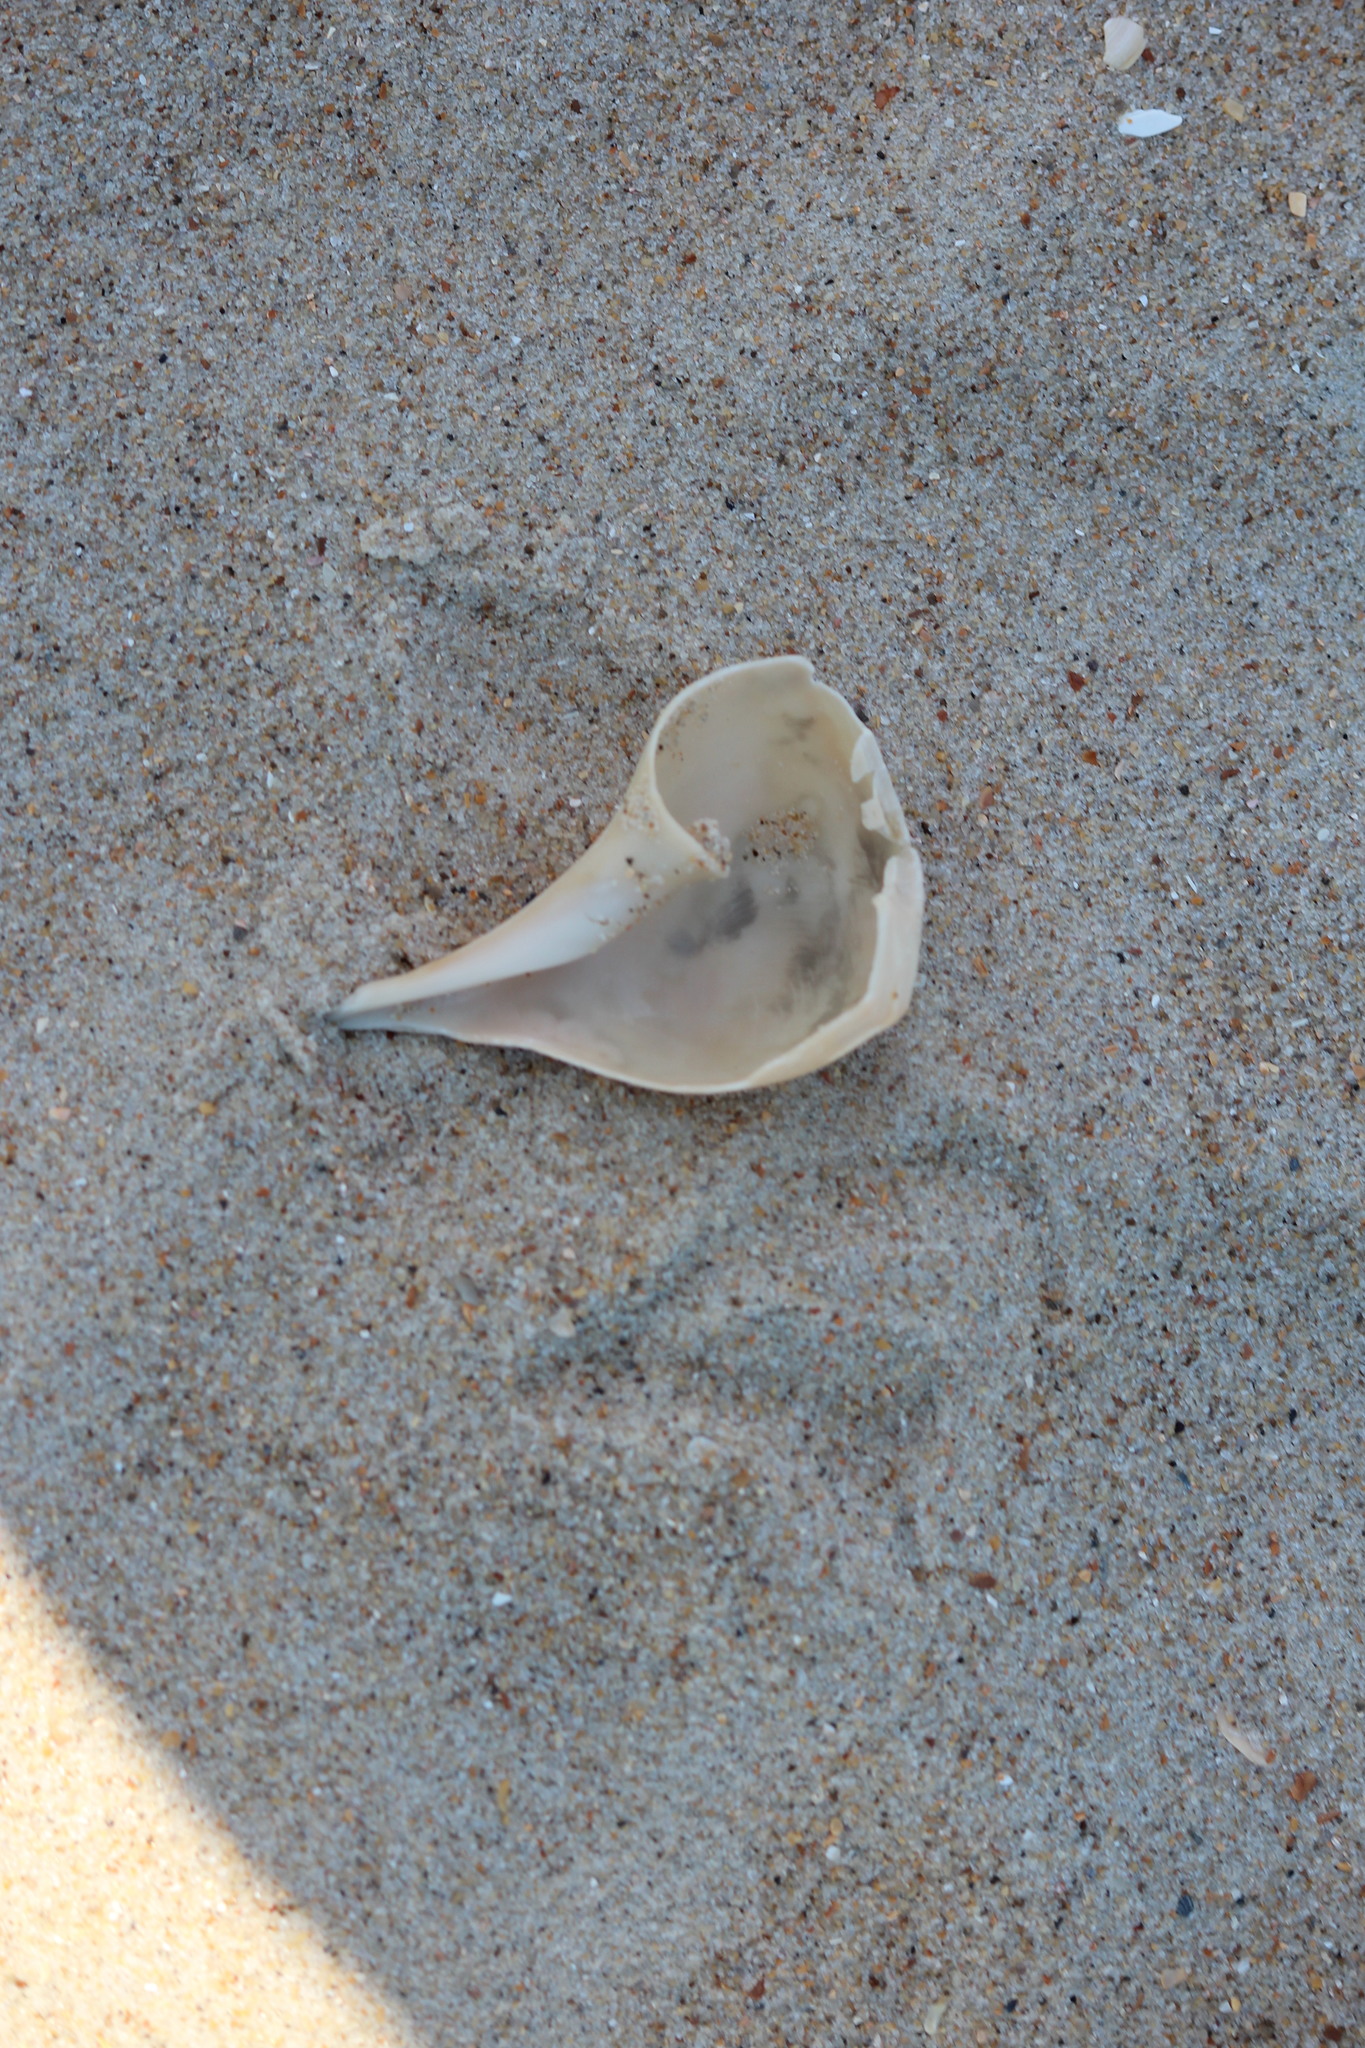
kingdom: Animalia
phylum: Mollusca
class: Gastropoda
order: Neogastropoda
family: Busyconidae
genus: Busycotypus
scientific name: Busycotypus canaliculatus
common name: Channeled whelk
